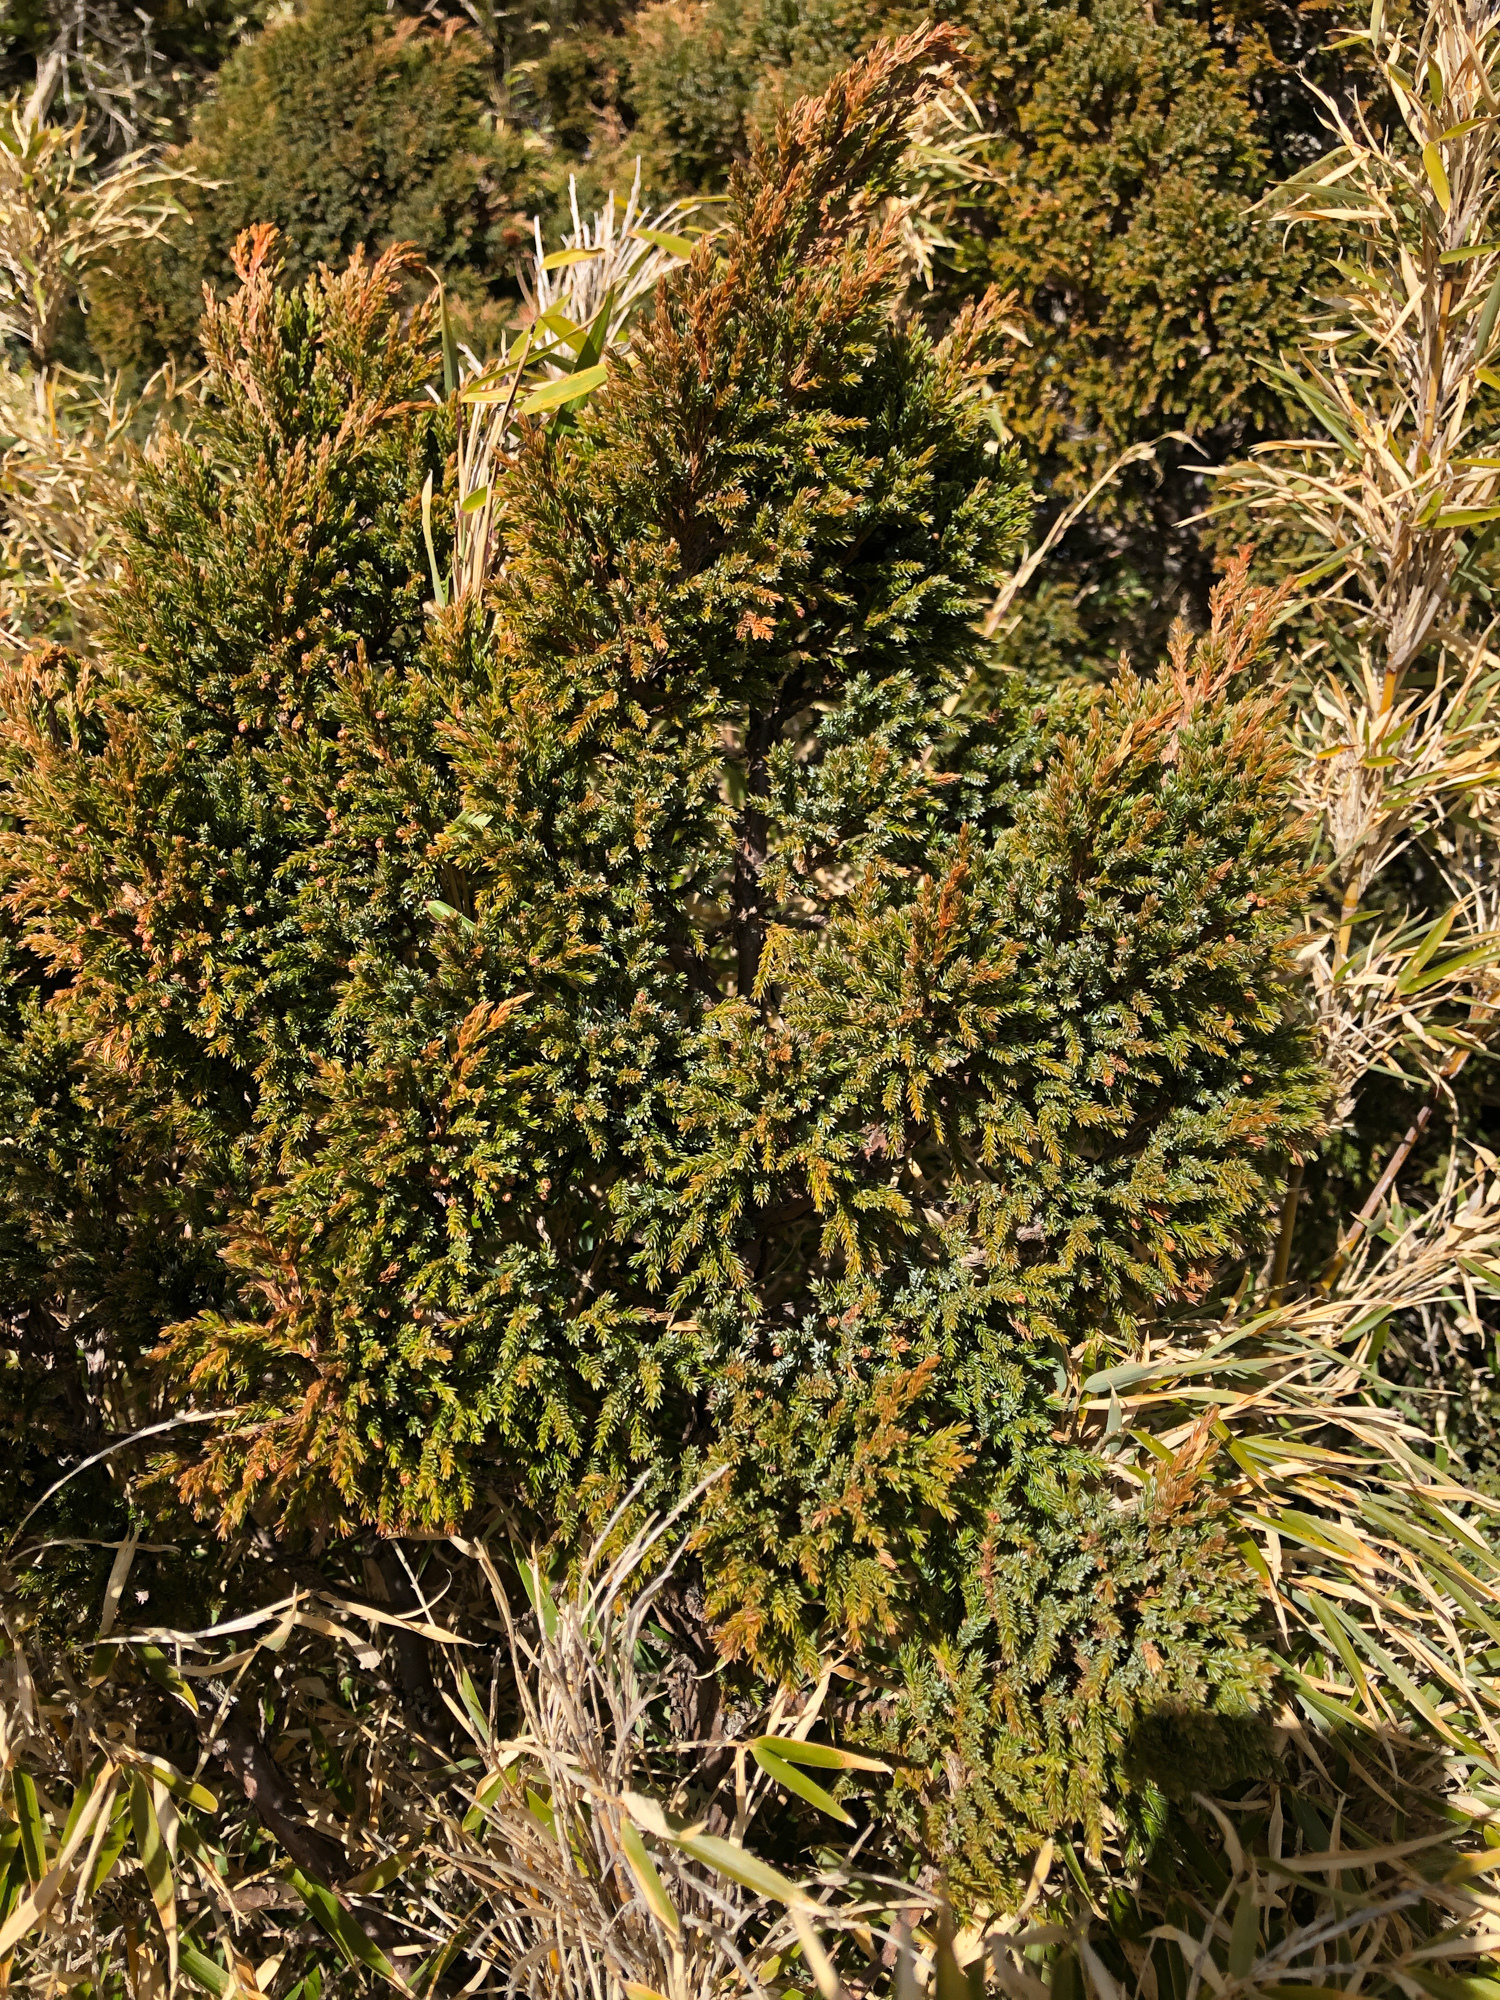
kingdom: Plantae
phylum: Tracheophyta
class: Pinopsida
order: Pinales
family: Cupressaceae
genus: Juniperus
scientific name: Juniperus squamata
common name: Flaky juniper
